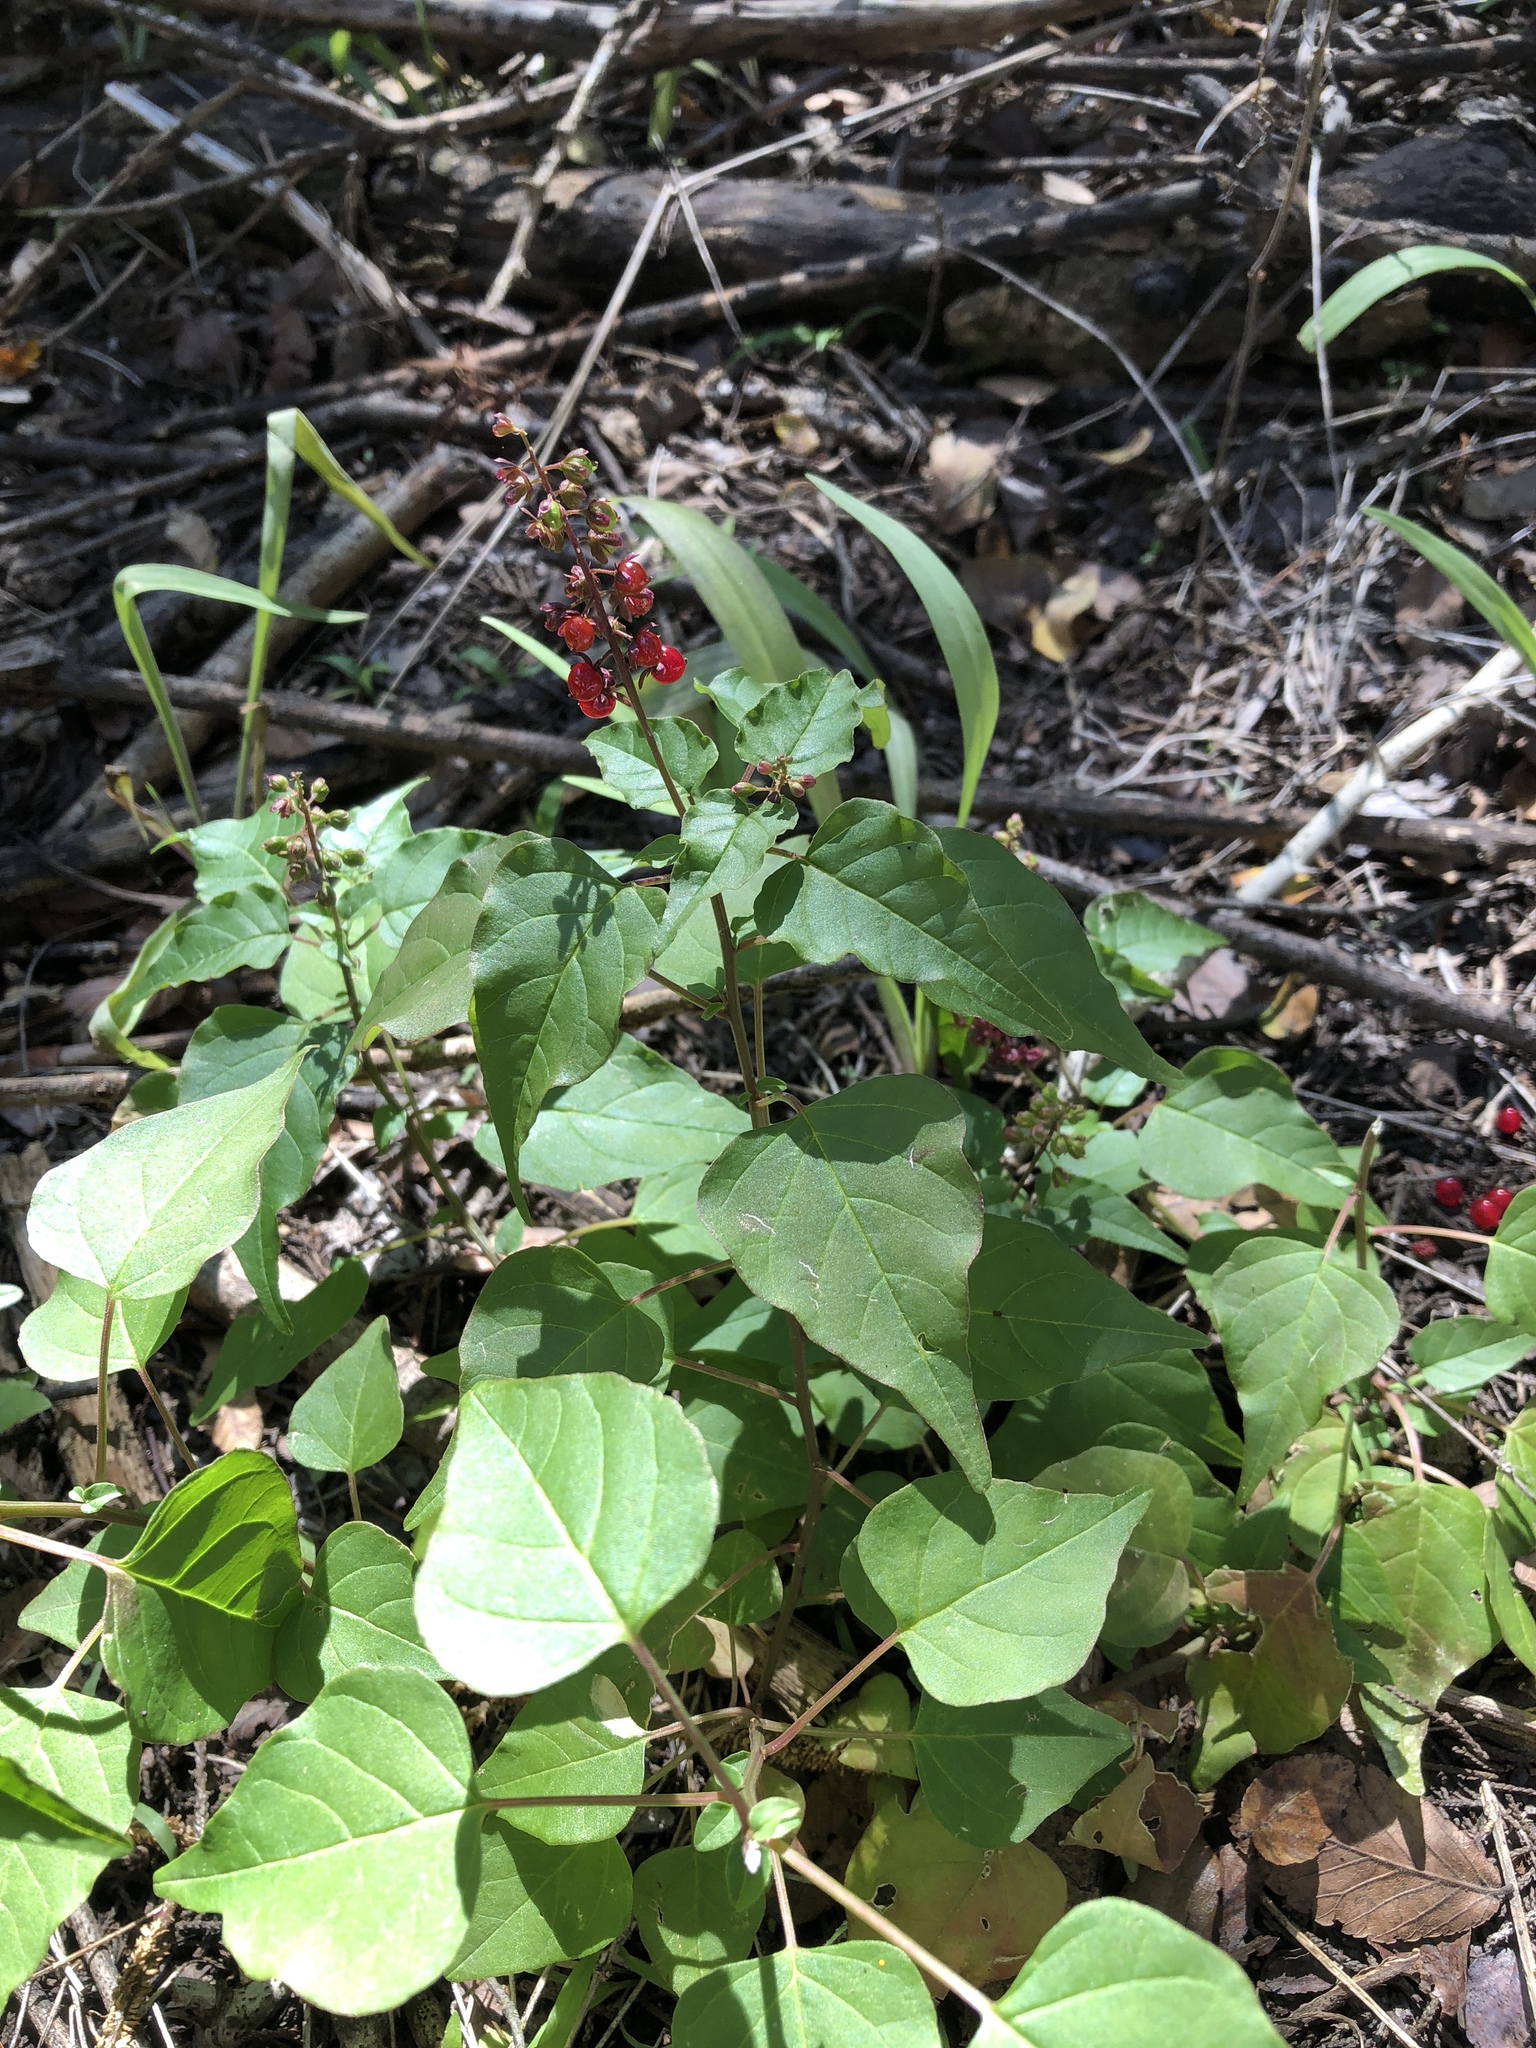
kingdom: Plantae
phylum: Tracheophyta
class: Magnoliopsida
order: Caryophyllales
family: Phytolaccaceae
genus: Rivina
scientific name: Rivina humilis
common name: Rougeplant
